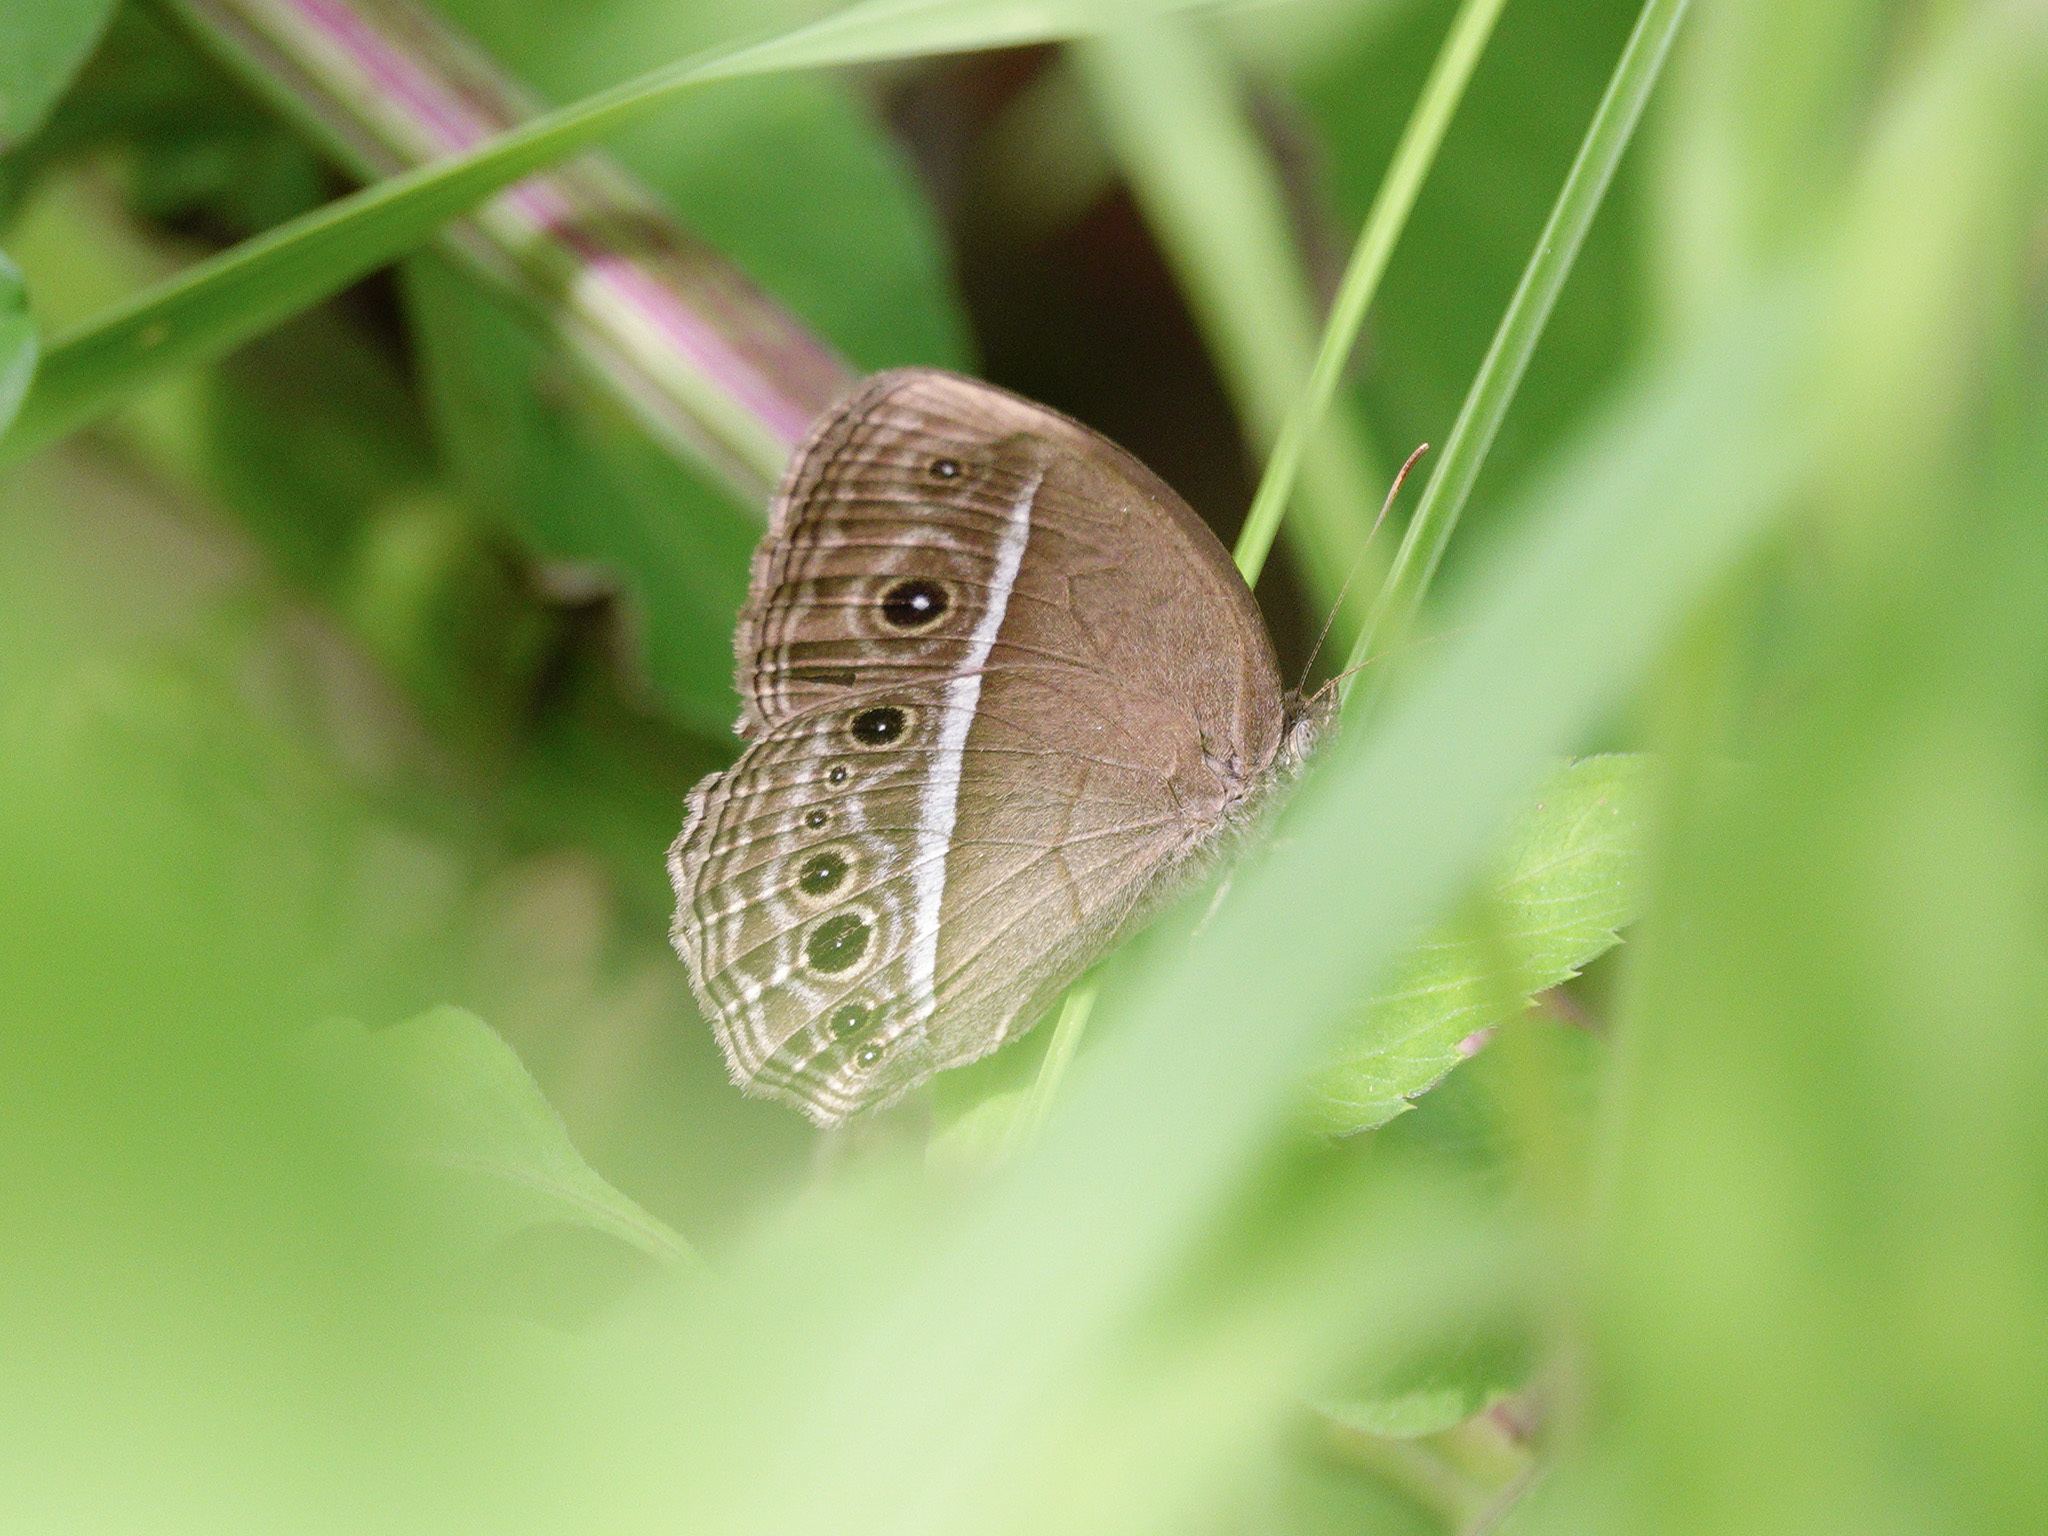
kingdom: Animalia
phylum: Arthropoda
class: Insecta
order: Lepidoptera
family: Nymphalidae
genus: Mycalesis
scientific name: Mycalesis mineus
